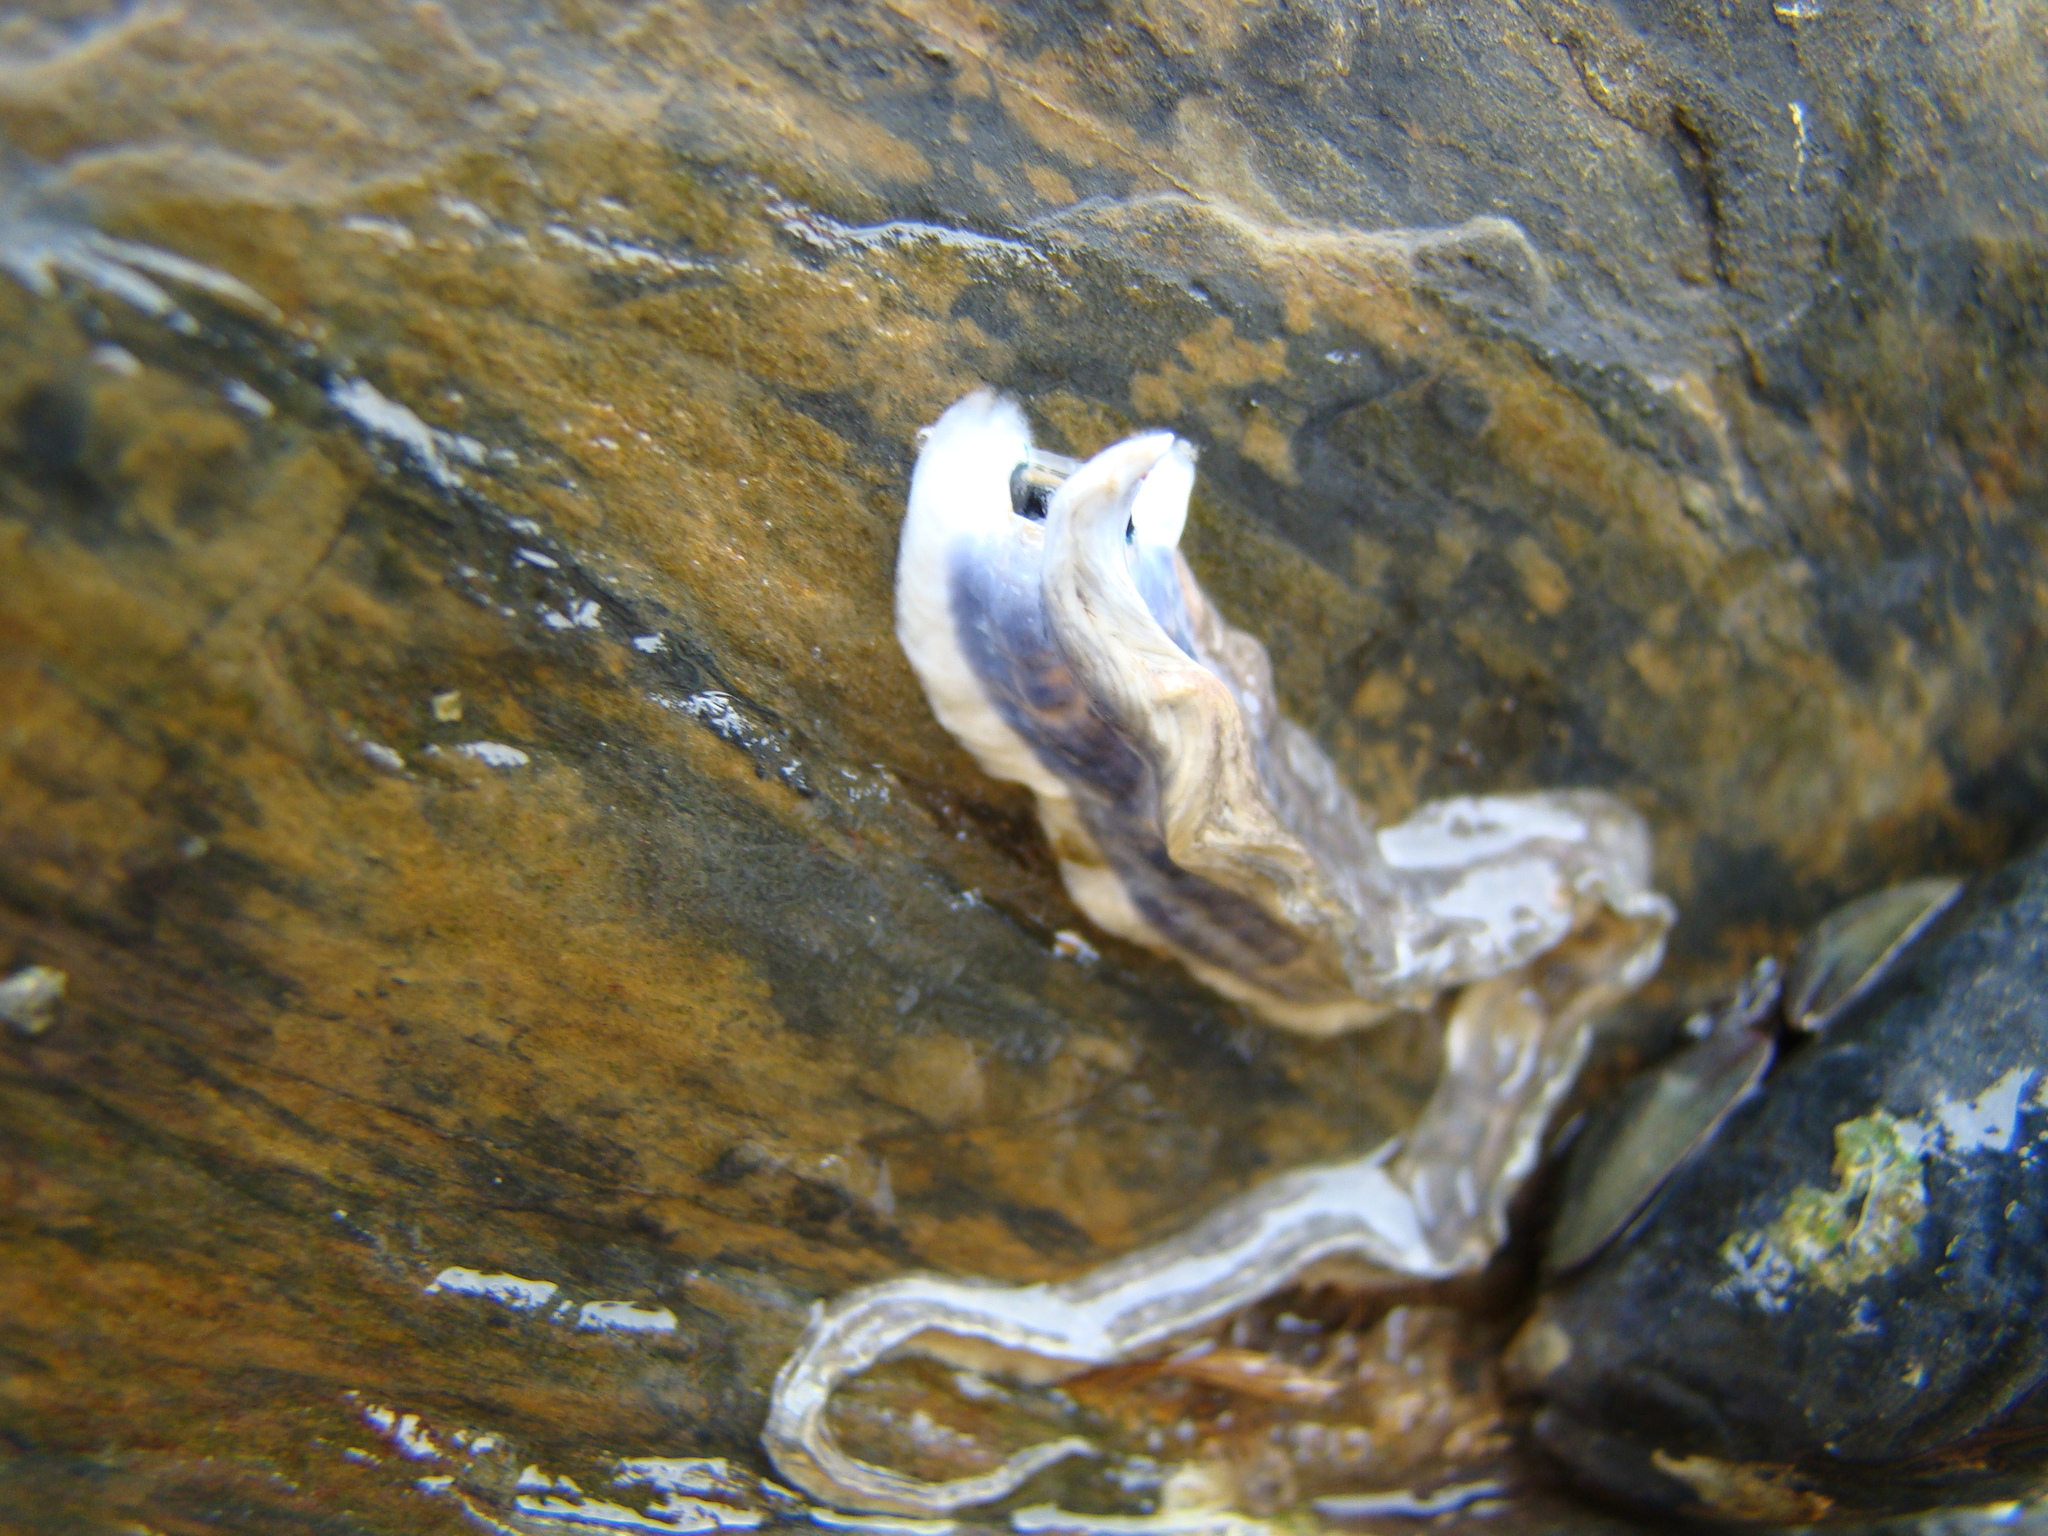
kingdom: Animalia
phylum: Annelida
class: Polychaeta
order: Sabellida
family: Serpulidae
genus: Spirobranchus
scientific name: Spirobranchus cariniferus
